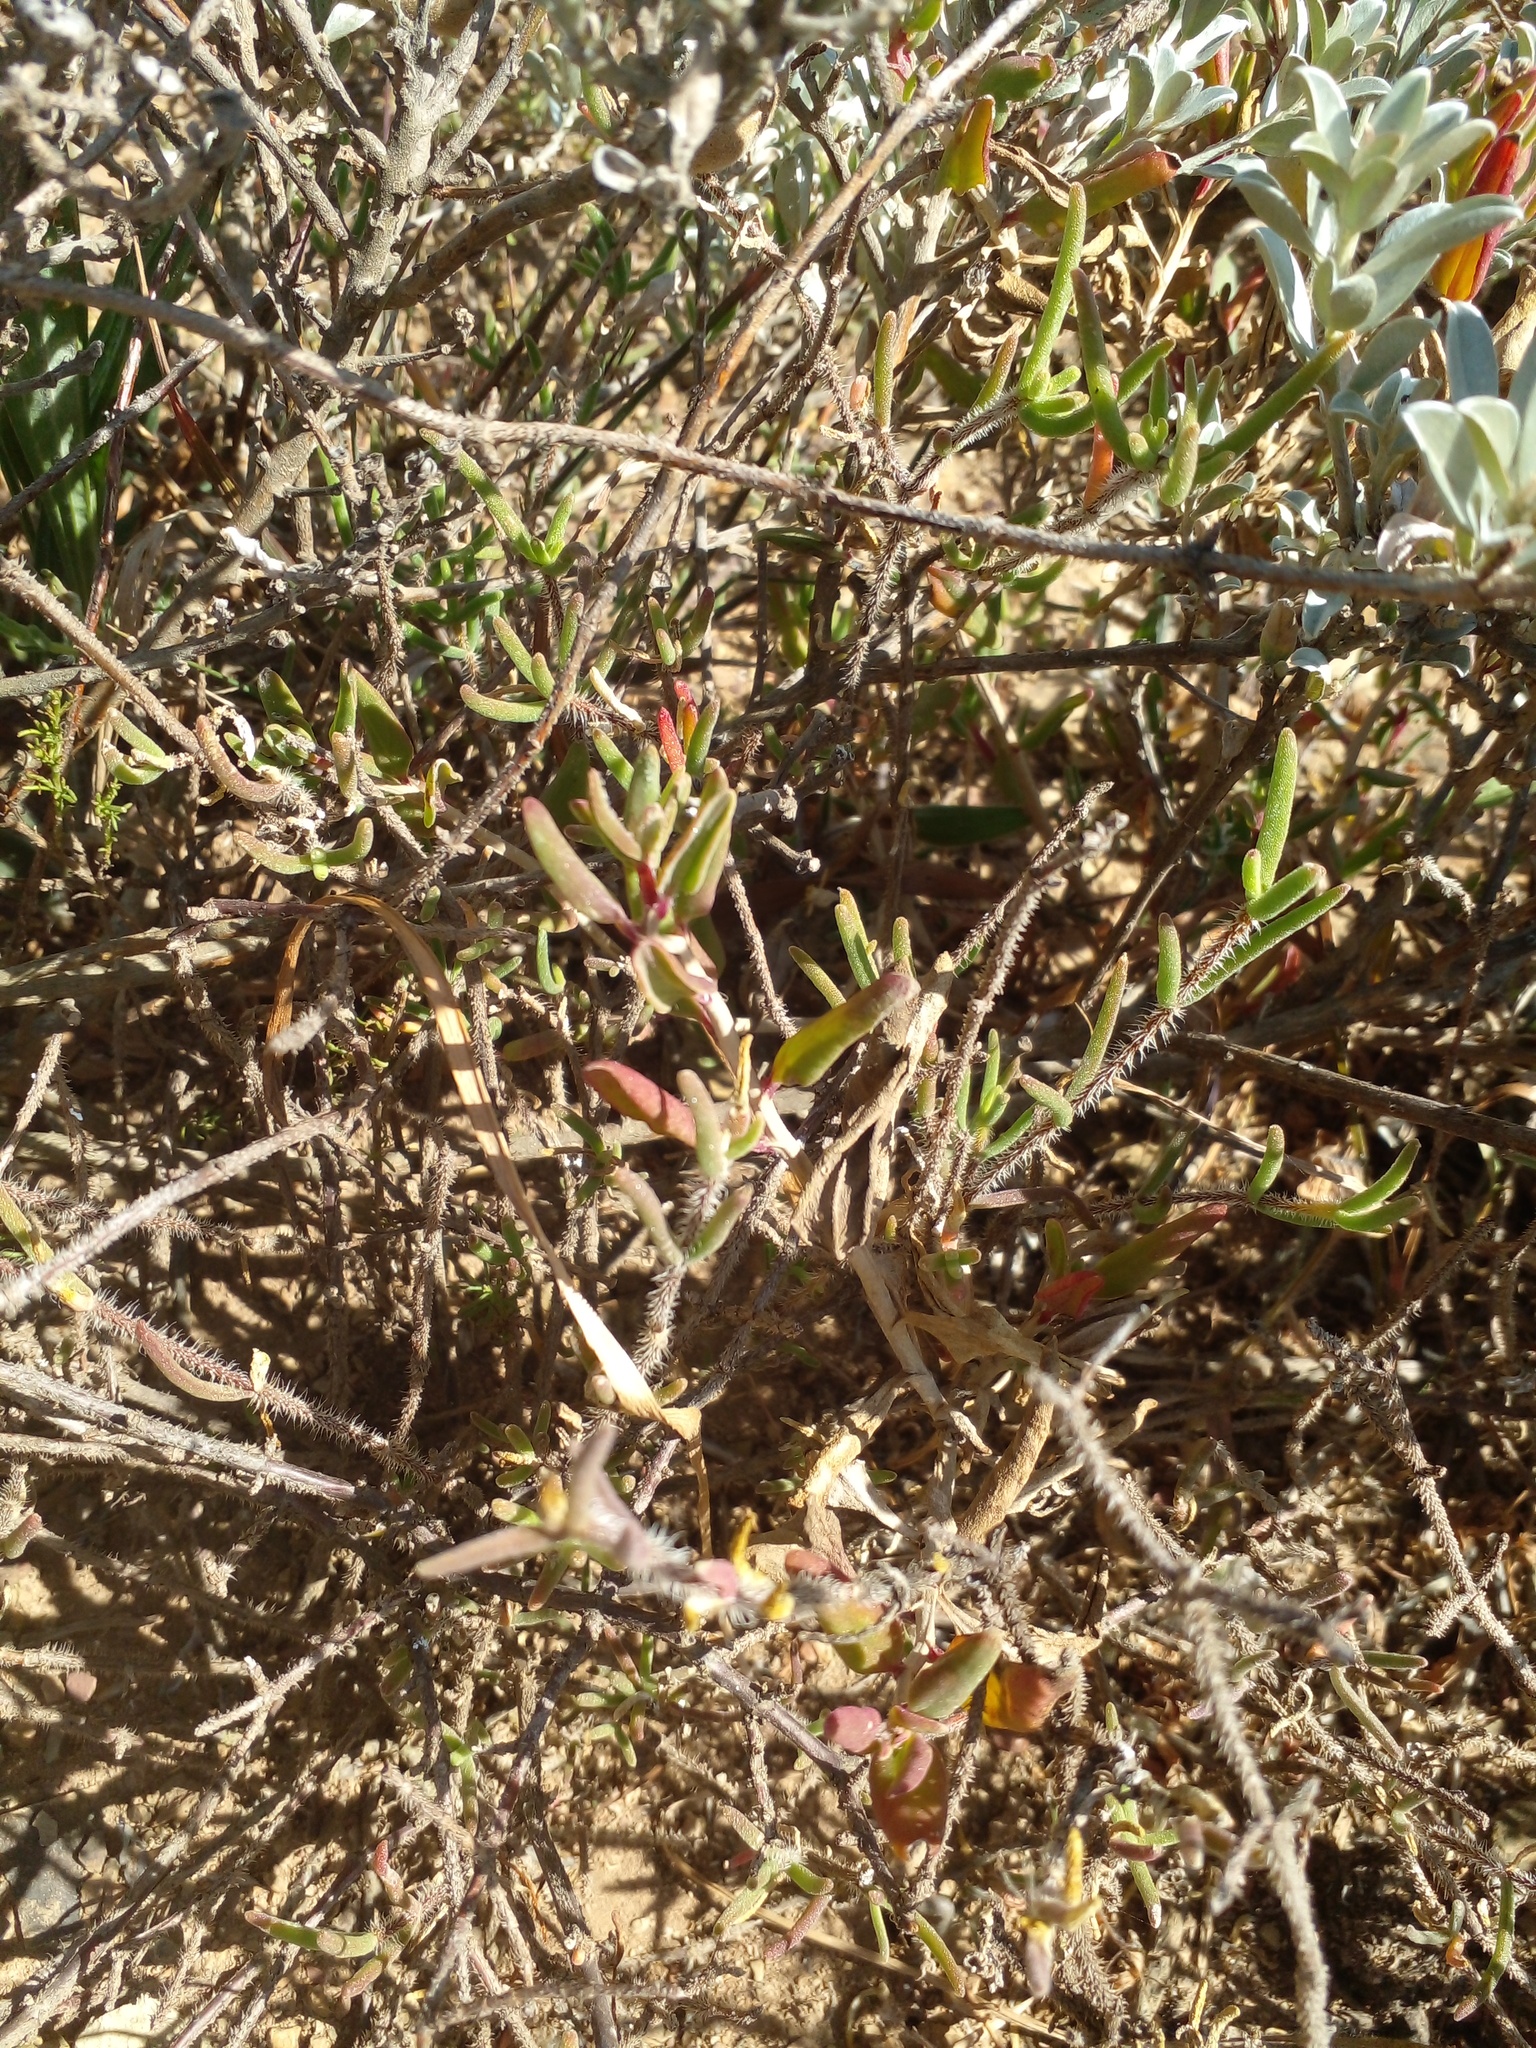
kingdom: Plantae
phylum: Tracheophyta
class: Magnoliopsida
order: Caryophyllales
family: Aizoaceae
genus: Drosanthemum
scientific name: Drosanthemum calycinum
